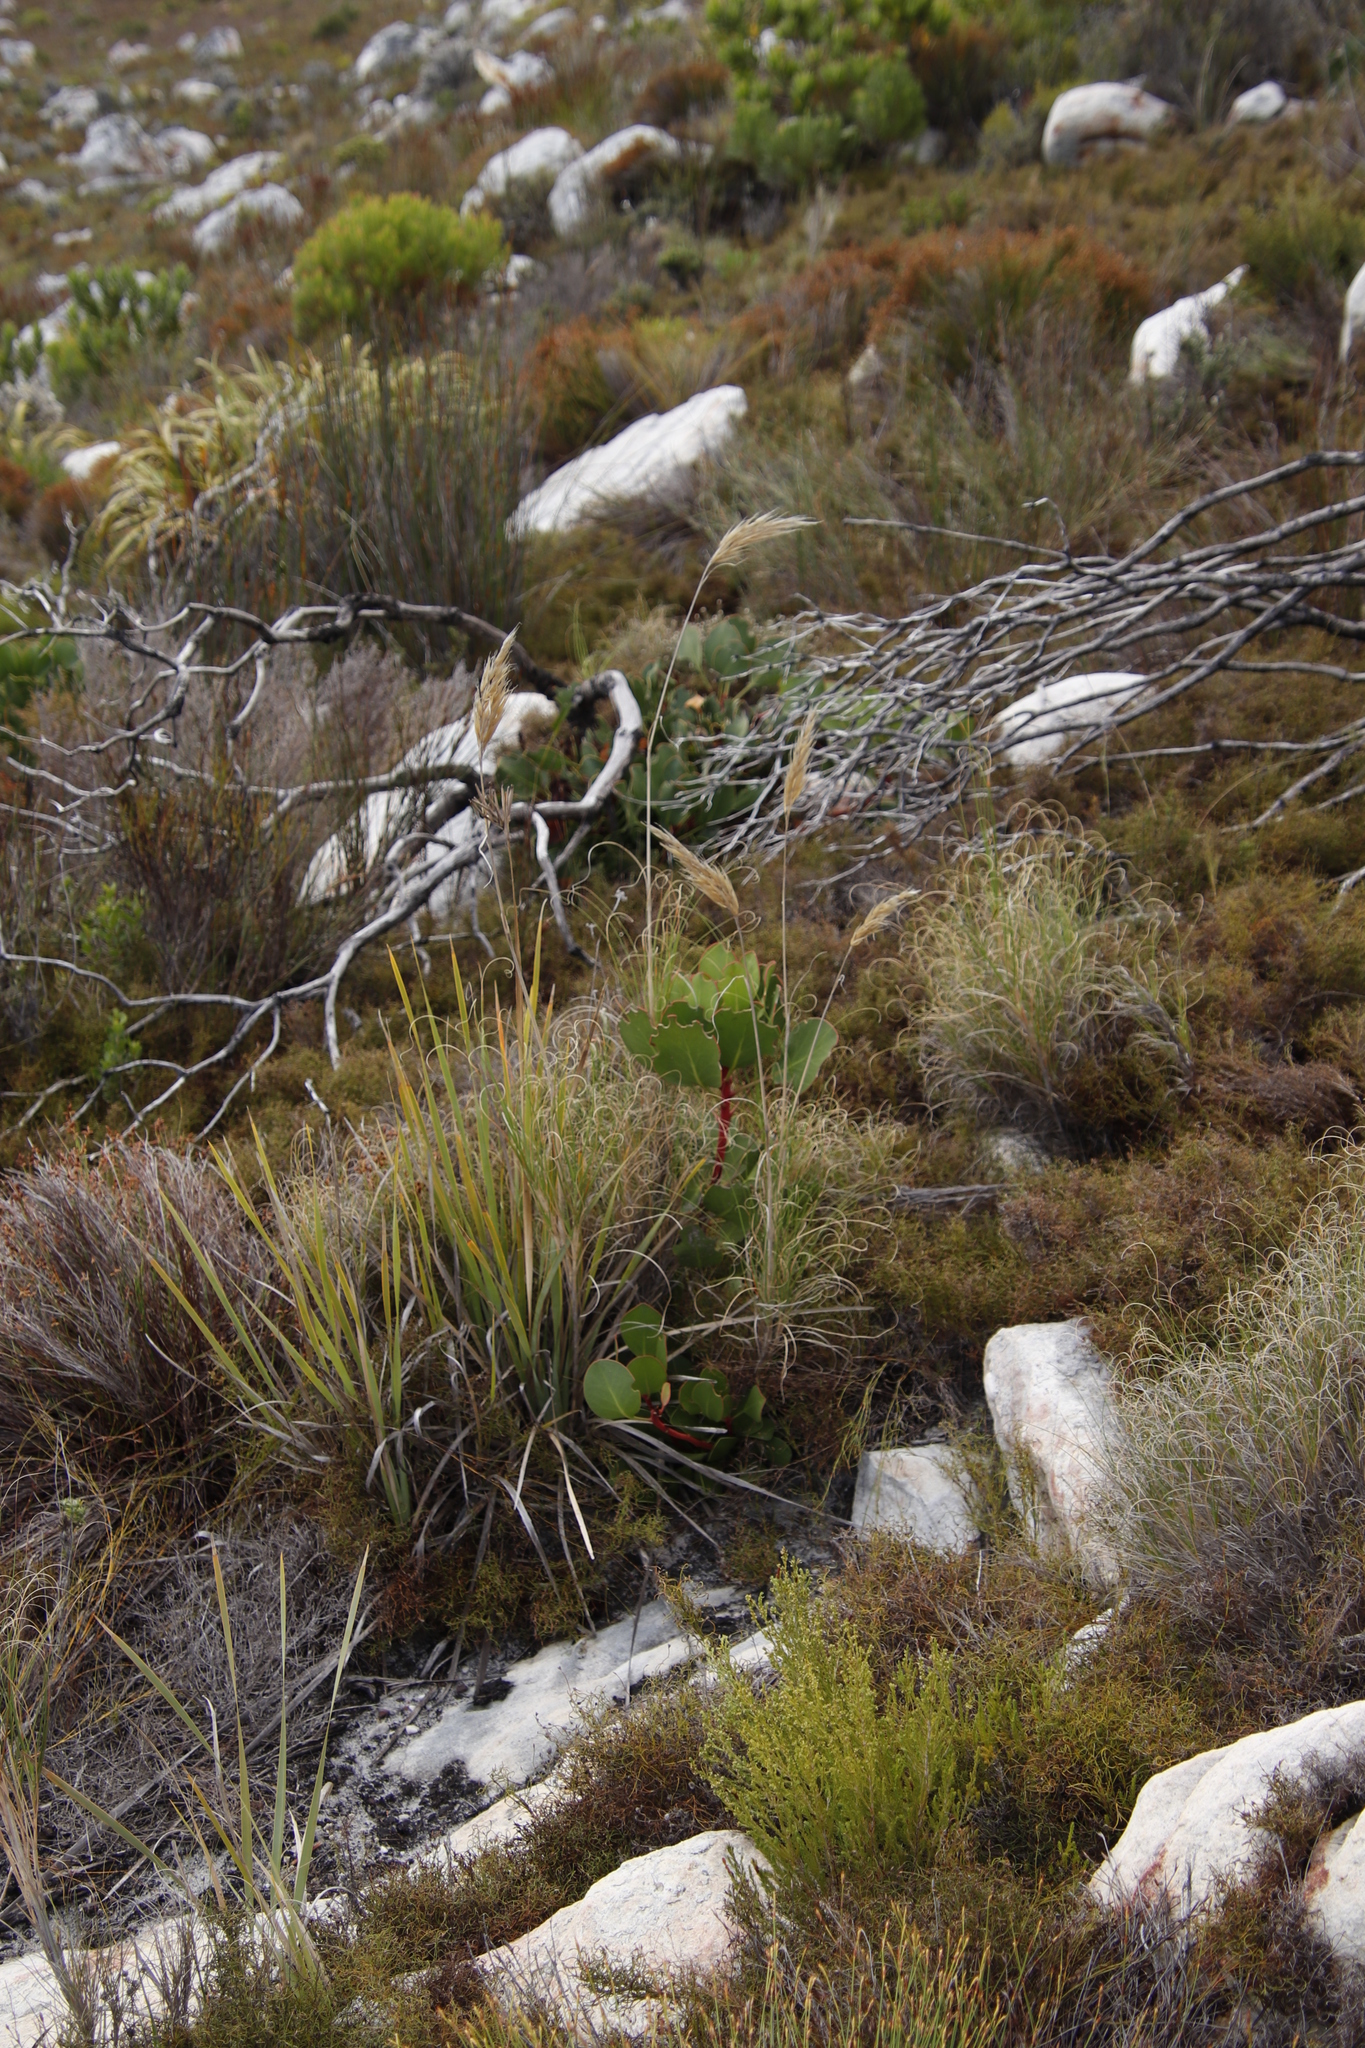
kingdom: Plantae
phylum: Tracheophyta
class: Magnoliopsida
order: Proteales
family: Proteaceae
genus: Protea
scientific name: Protea cynaroides
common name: King protea
